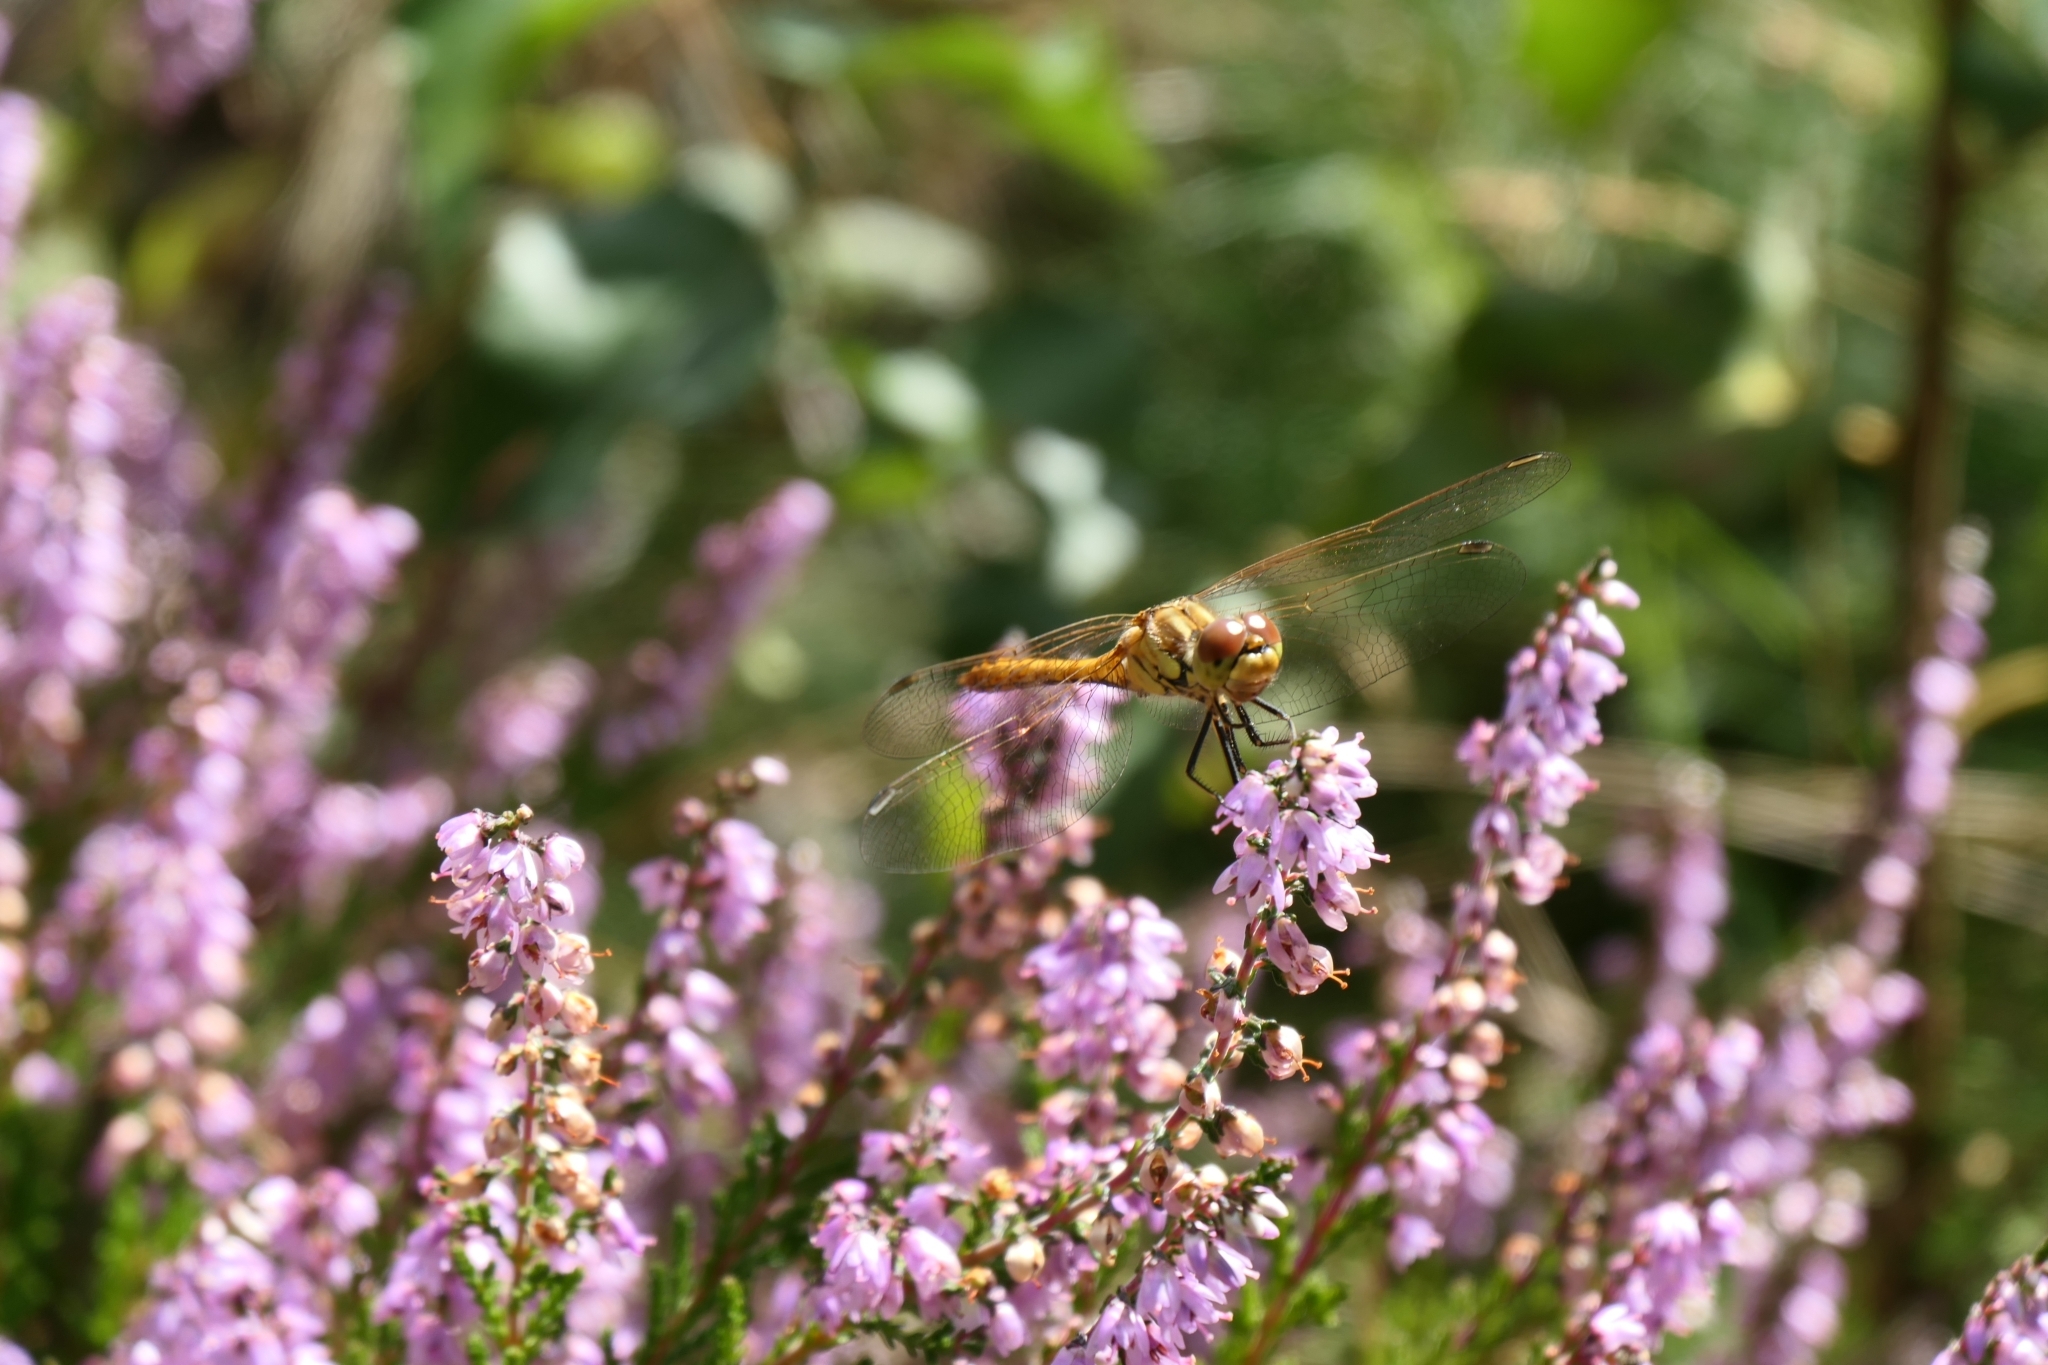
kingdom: Animalia
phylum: Arthropoda
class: Insecta
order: Odonata
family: Libellulidae
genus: Sympetrum
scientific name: Sympetrum vulgatum
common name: Vagrant darter
